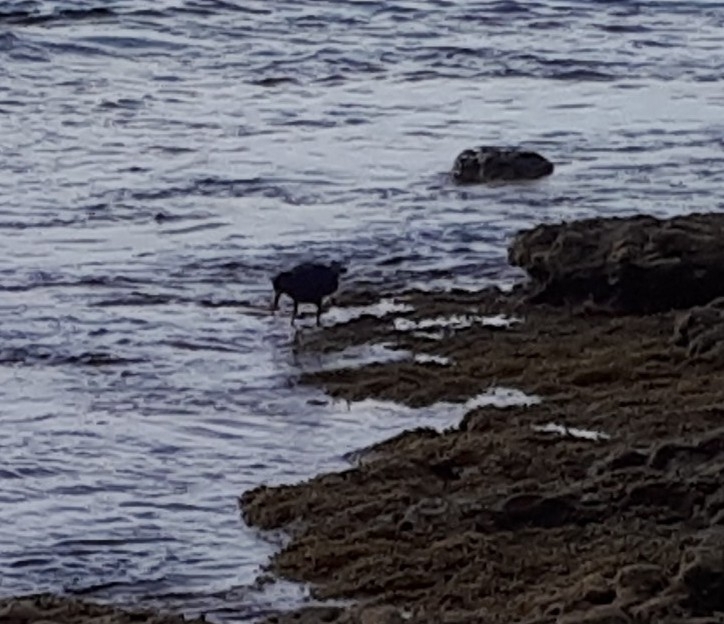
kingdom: Animalia
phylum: Chordata
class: Aves
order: Charadriiformes
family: Haematopodidae
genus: Haematopus
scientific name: Haematopus fuliginosus
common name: Sooty oystercatcher
